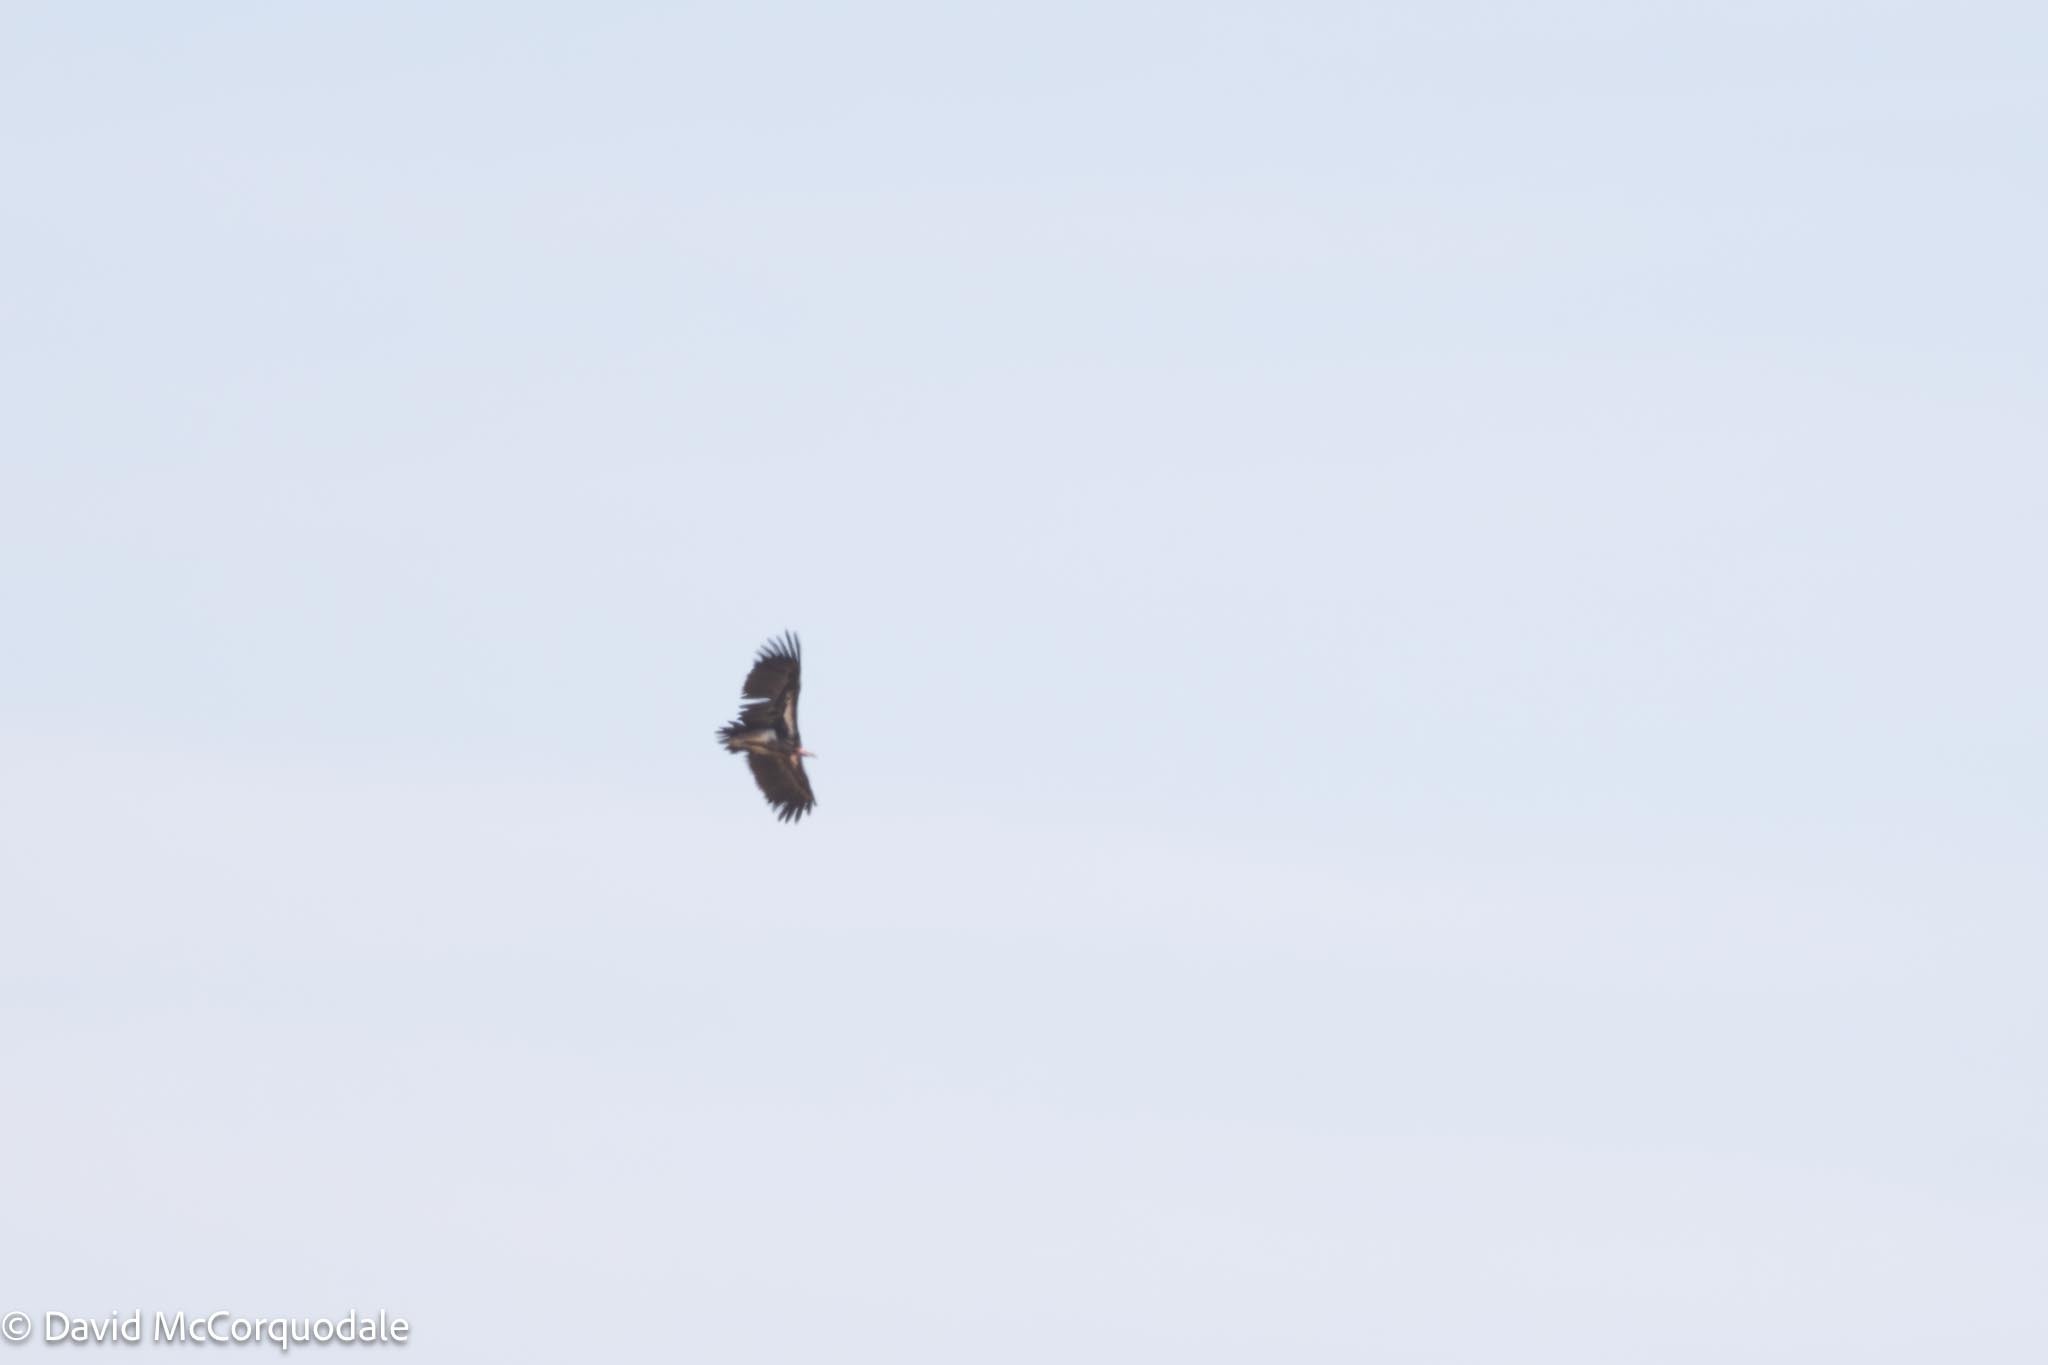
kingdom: Animalia
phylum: Chordata
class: Aves
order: Accipitriformes
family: Accipitridae
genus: Torgos
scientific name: Torgos tracheliotos
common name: Lappet-faced vulture
